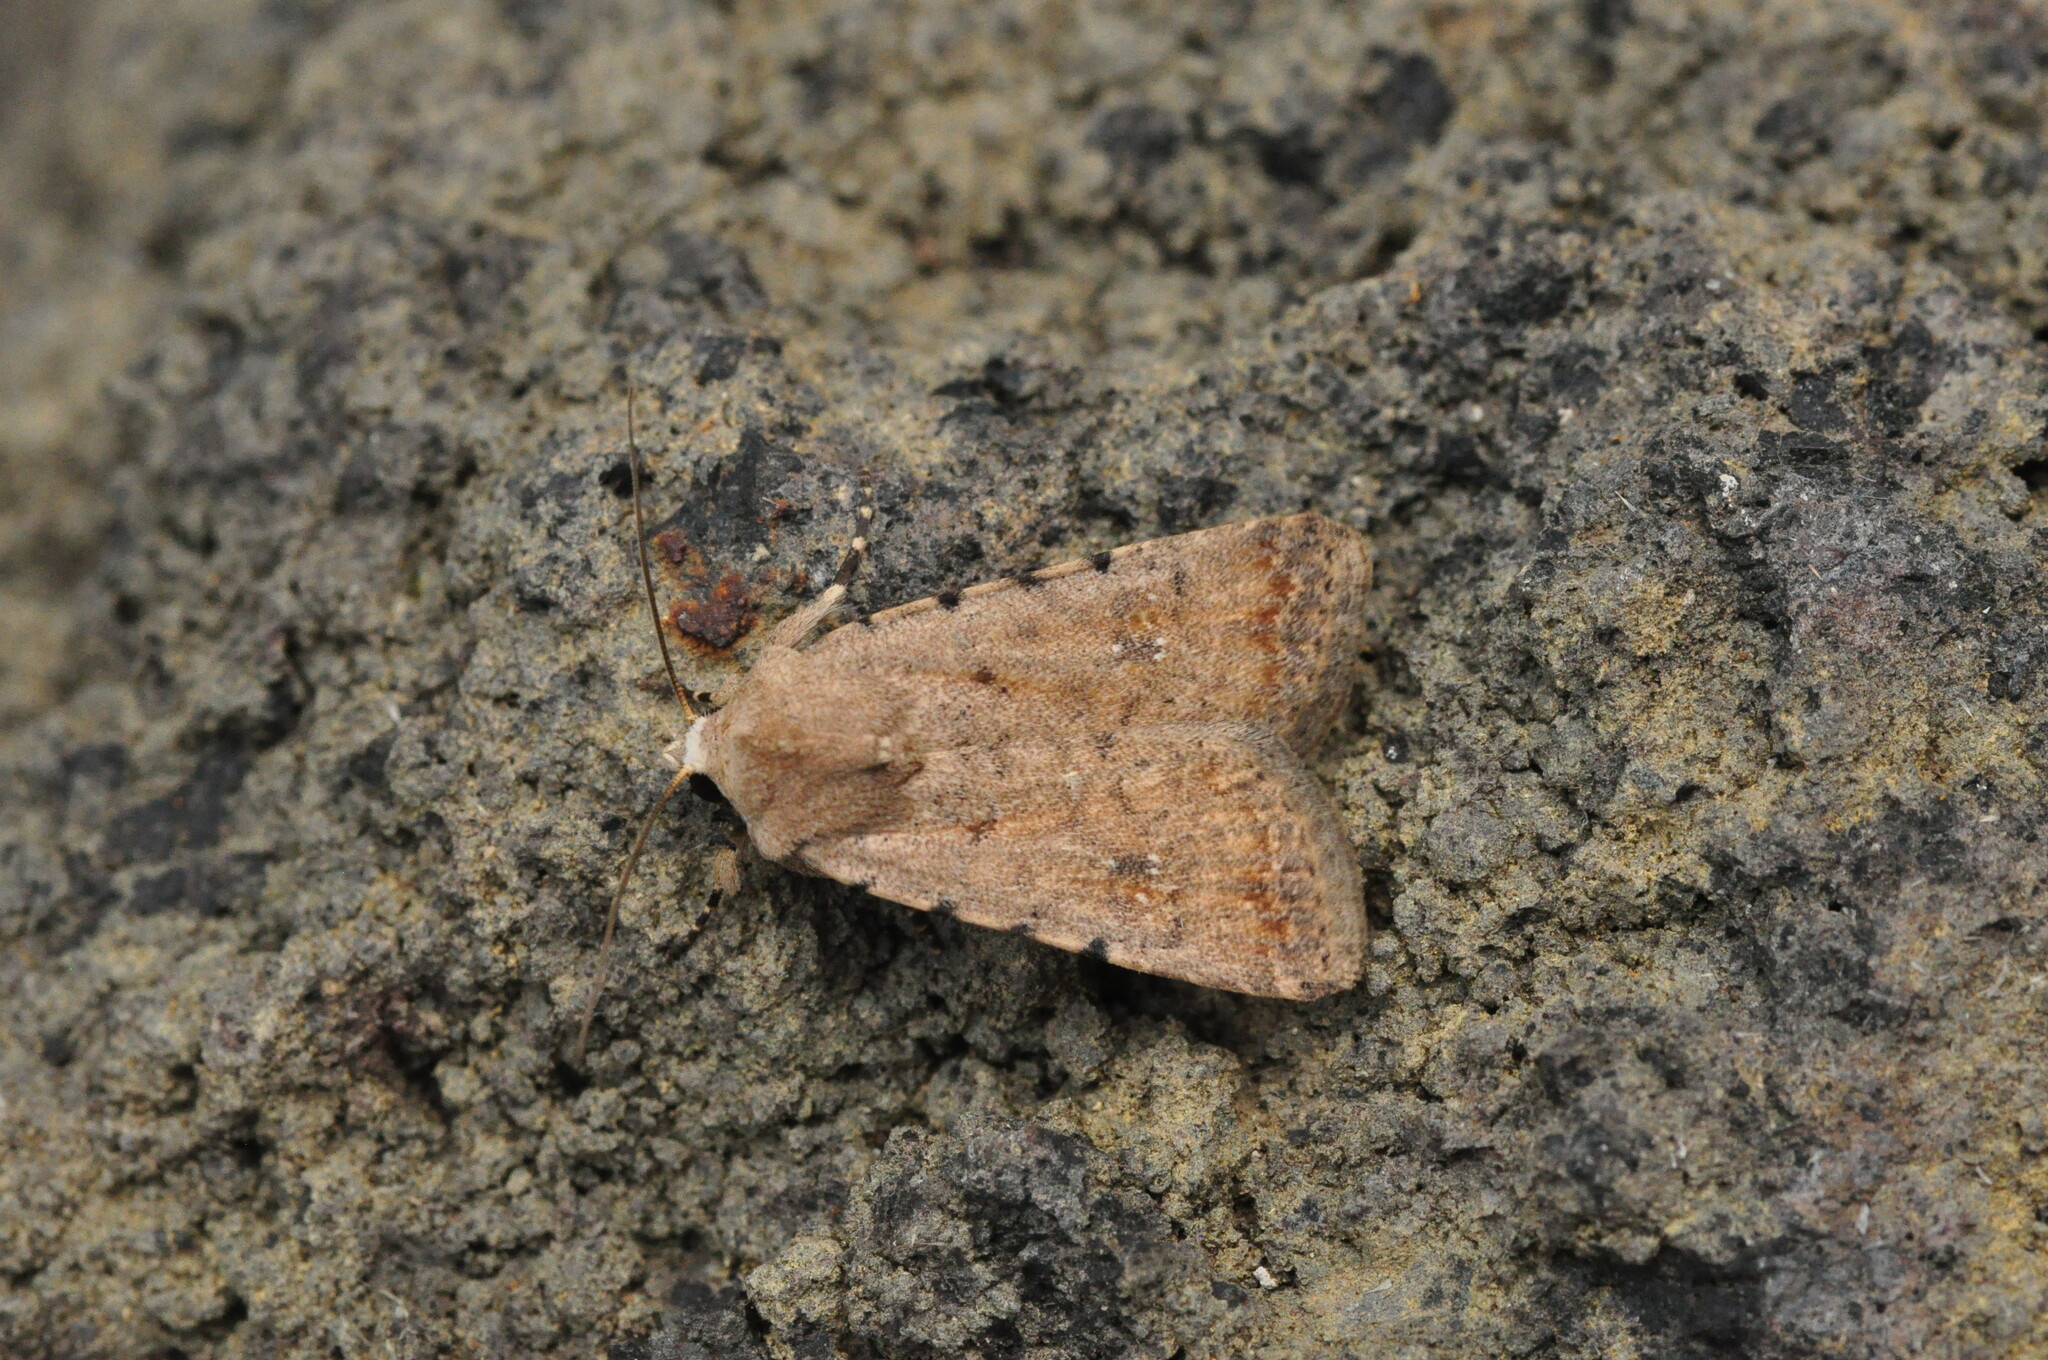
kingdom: Animalia
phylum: Arthropoda
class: Insecta
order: Lepidoptera
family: Noctuidae
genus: Caradrina
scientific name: Caradrina clavipalpis
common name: Pale mottled willow
